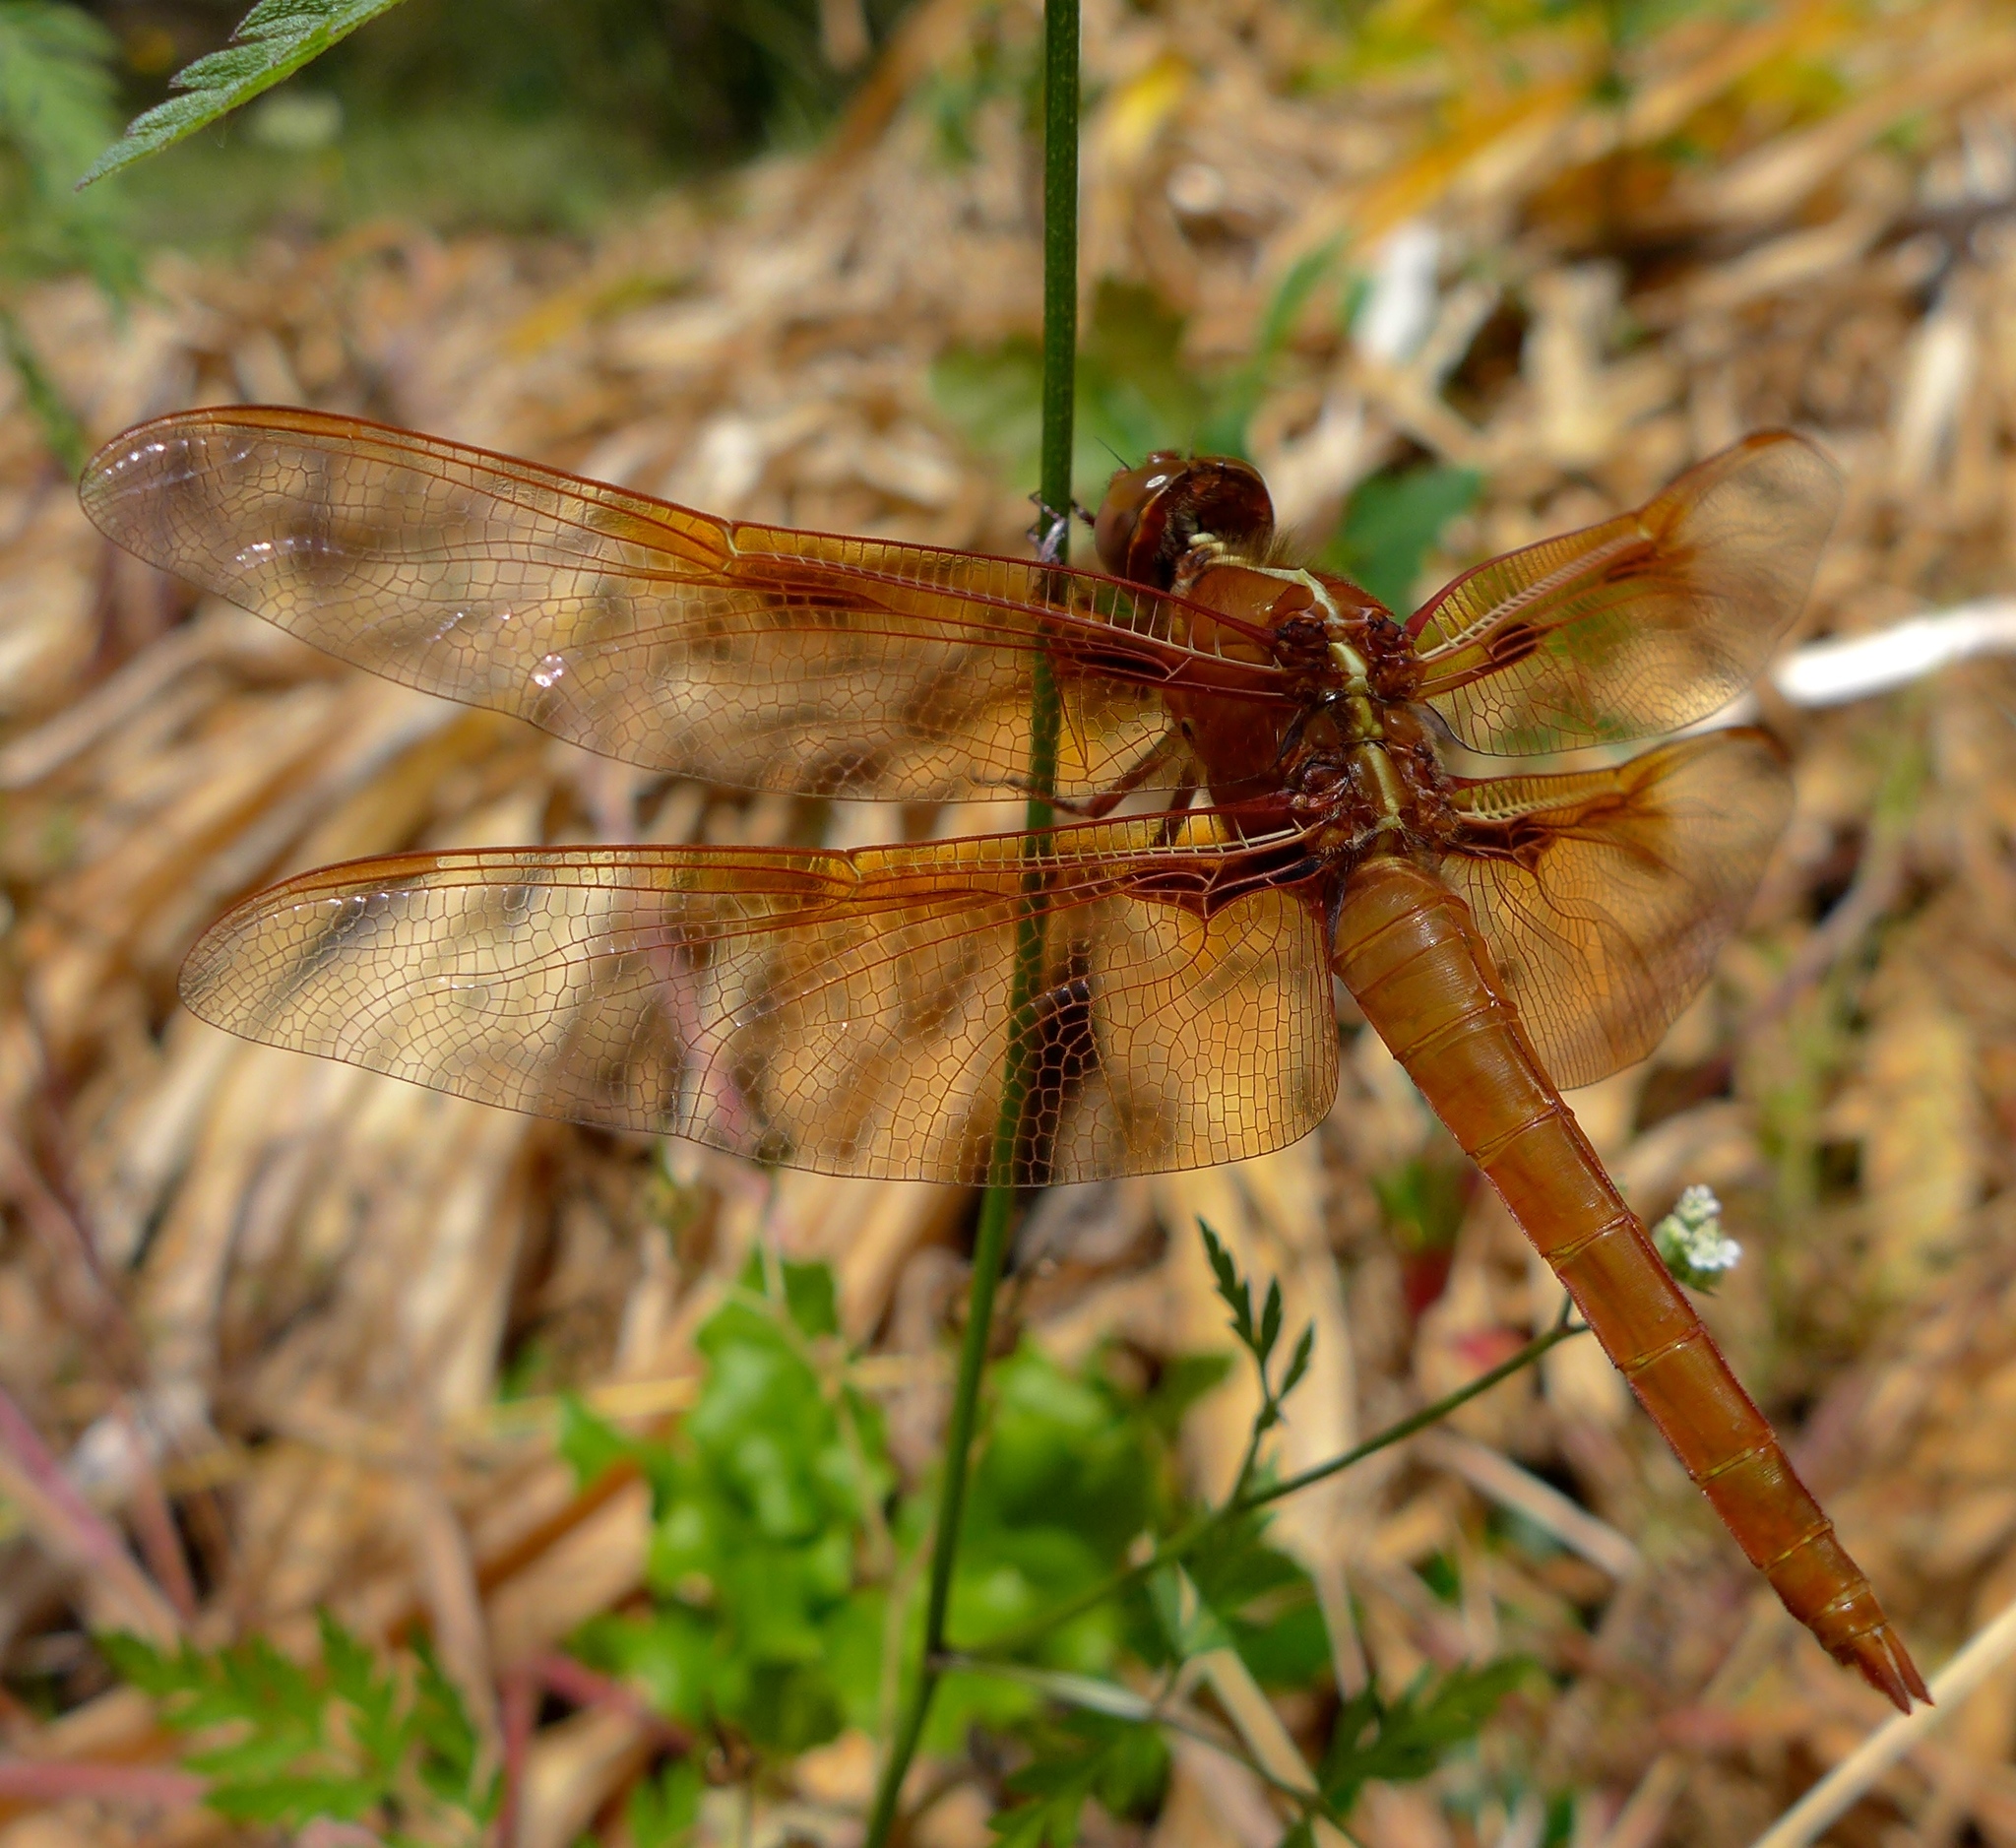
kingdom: Animalia
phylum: Arthropoda
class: Insecta
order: Odonata
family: Libellulidae
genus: Libellula
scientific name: Libellula saturata
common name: Flame skimmer
